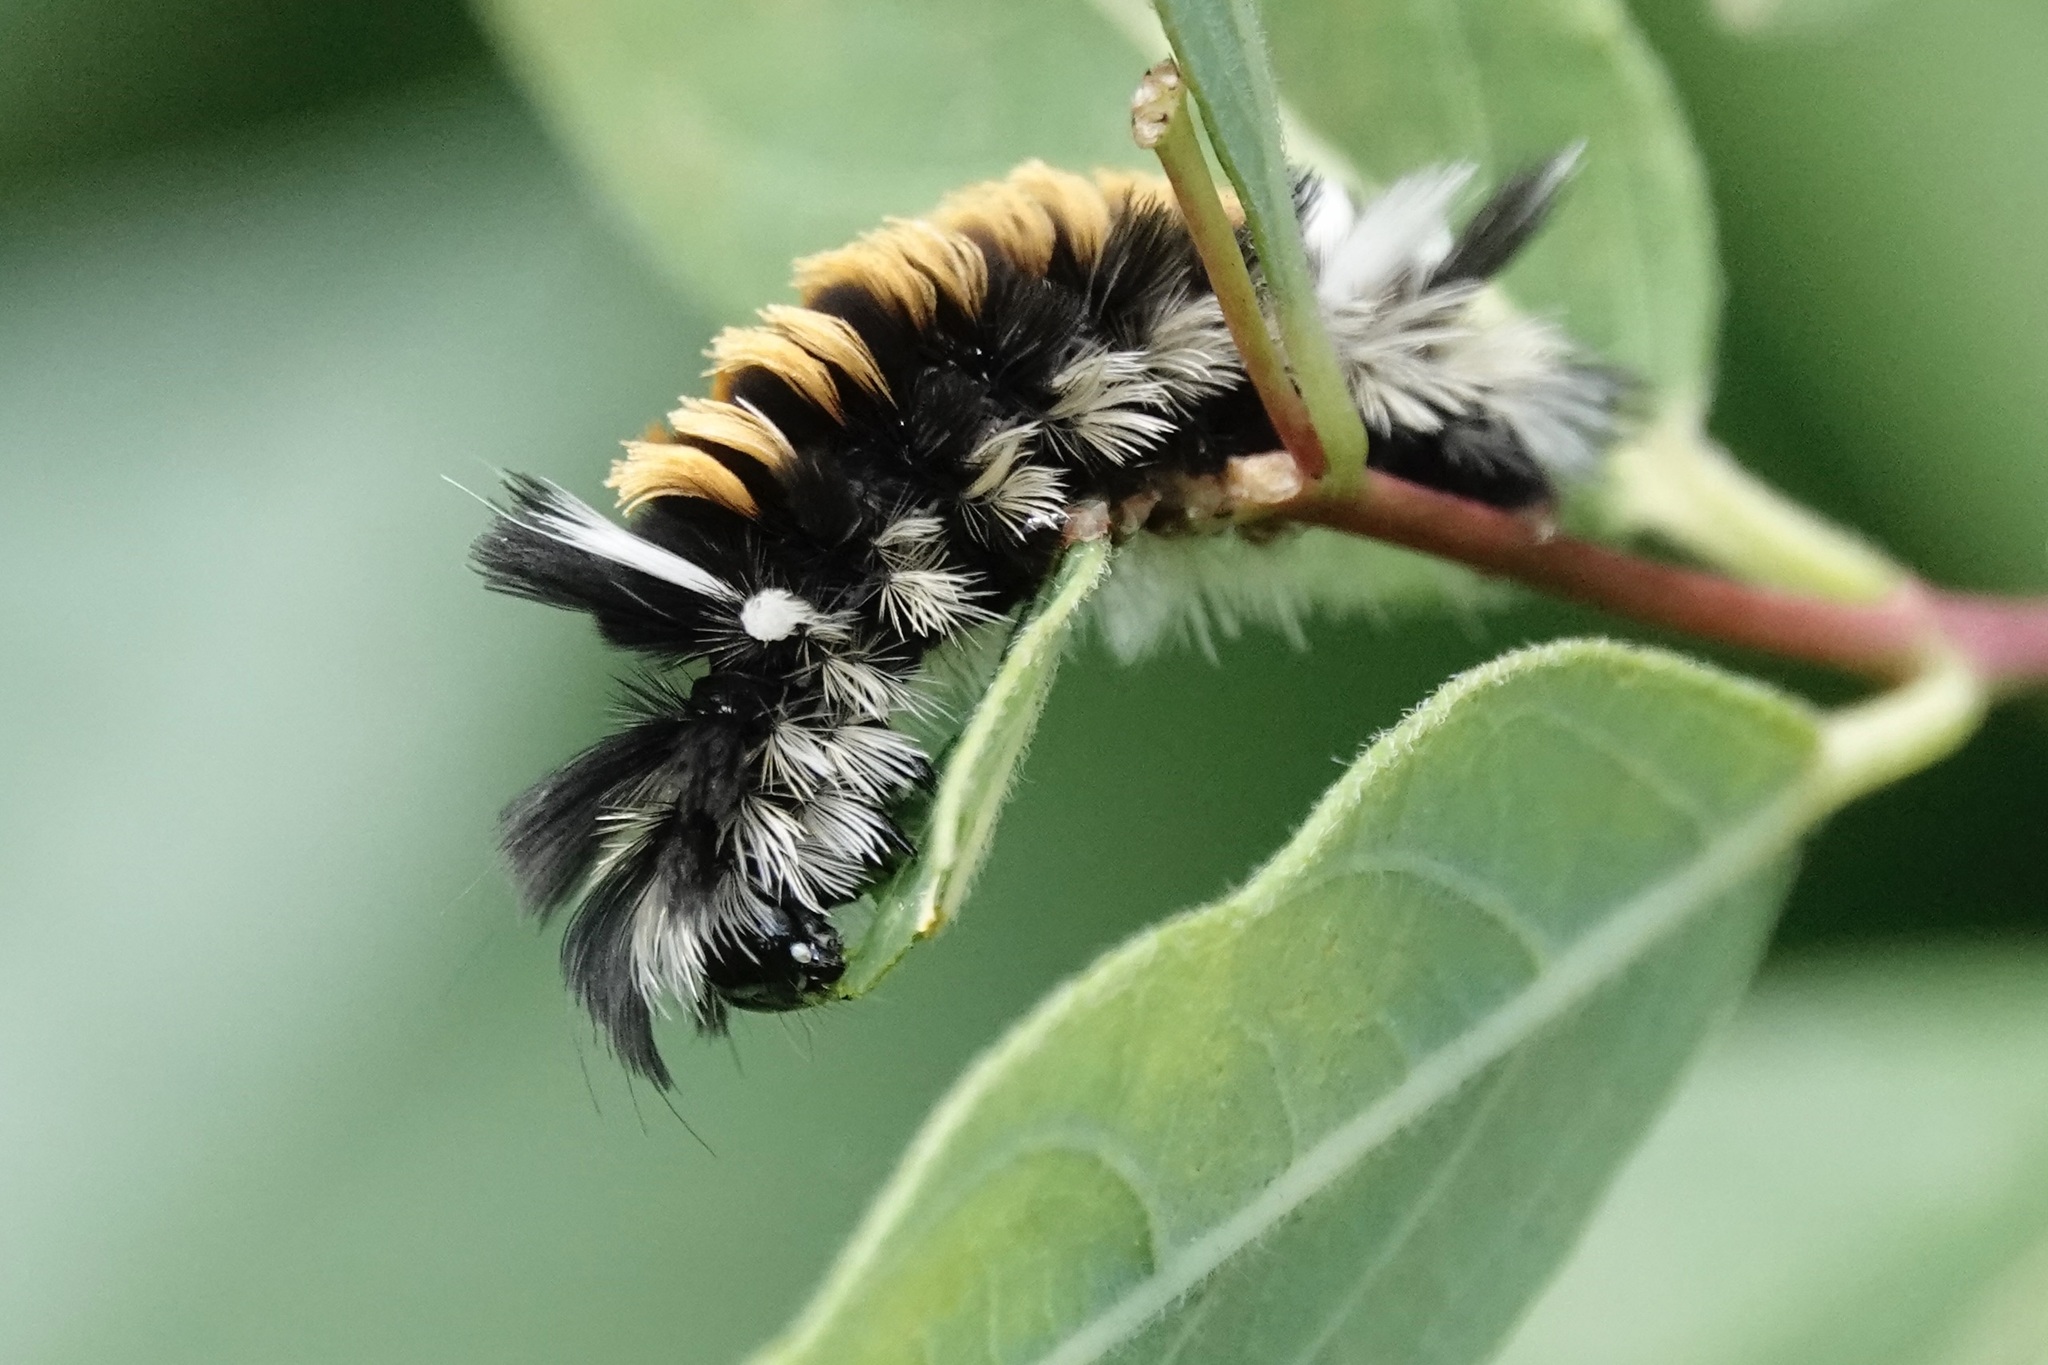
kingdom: Animalia
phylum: Arthropoda
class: Insecta
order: Lepidoptera
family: Erebidae
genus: Euchaetes
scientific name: Euchaetes egle
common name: Milkweed tussock moth
